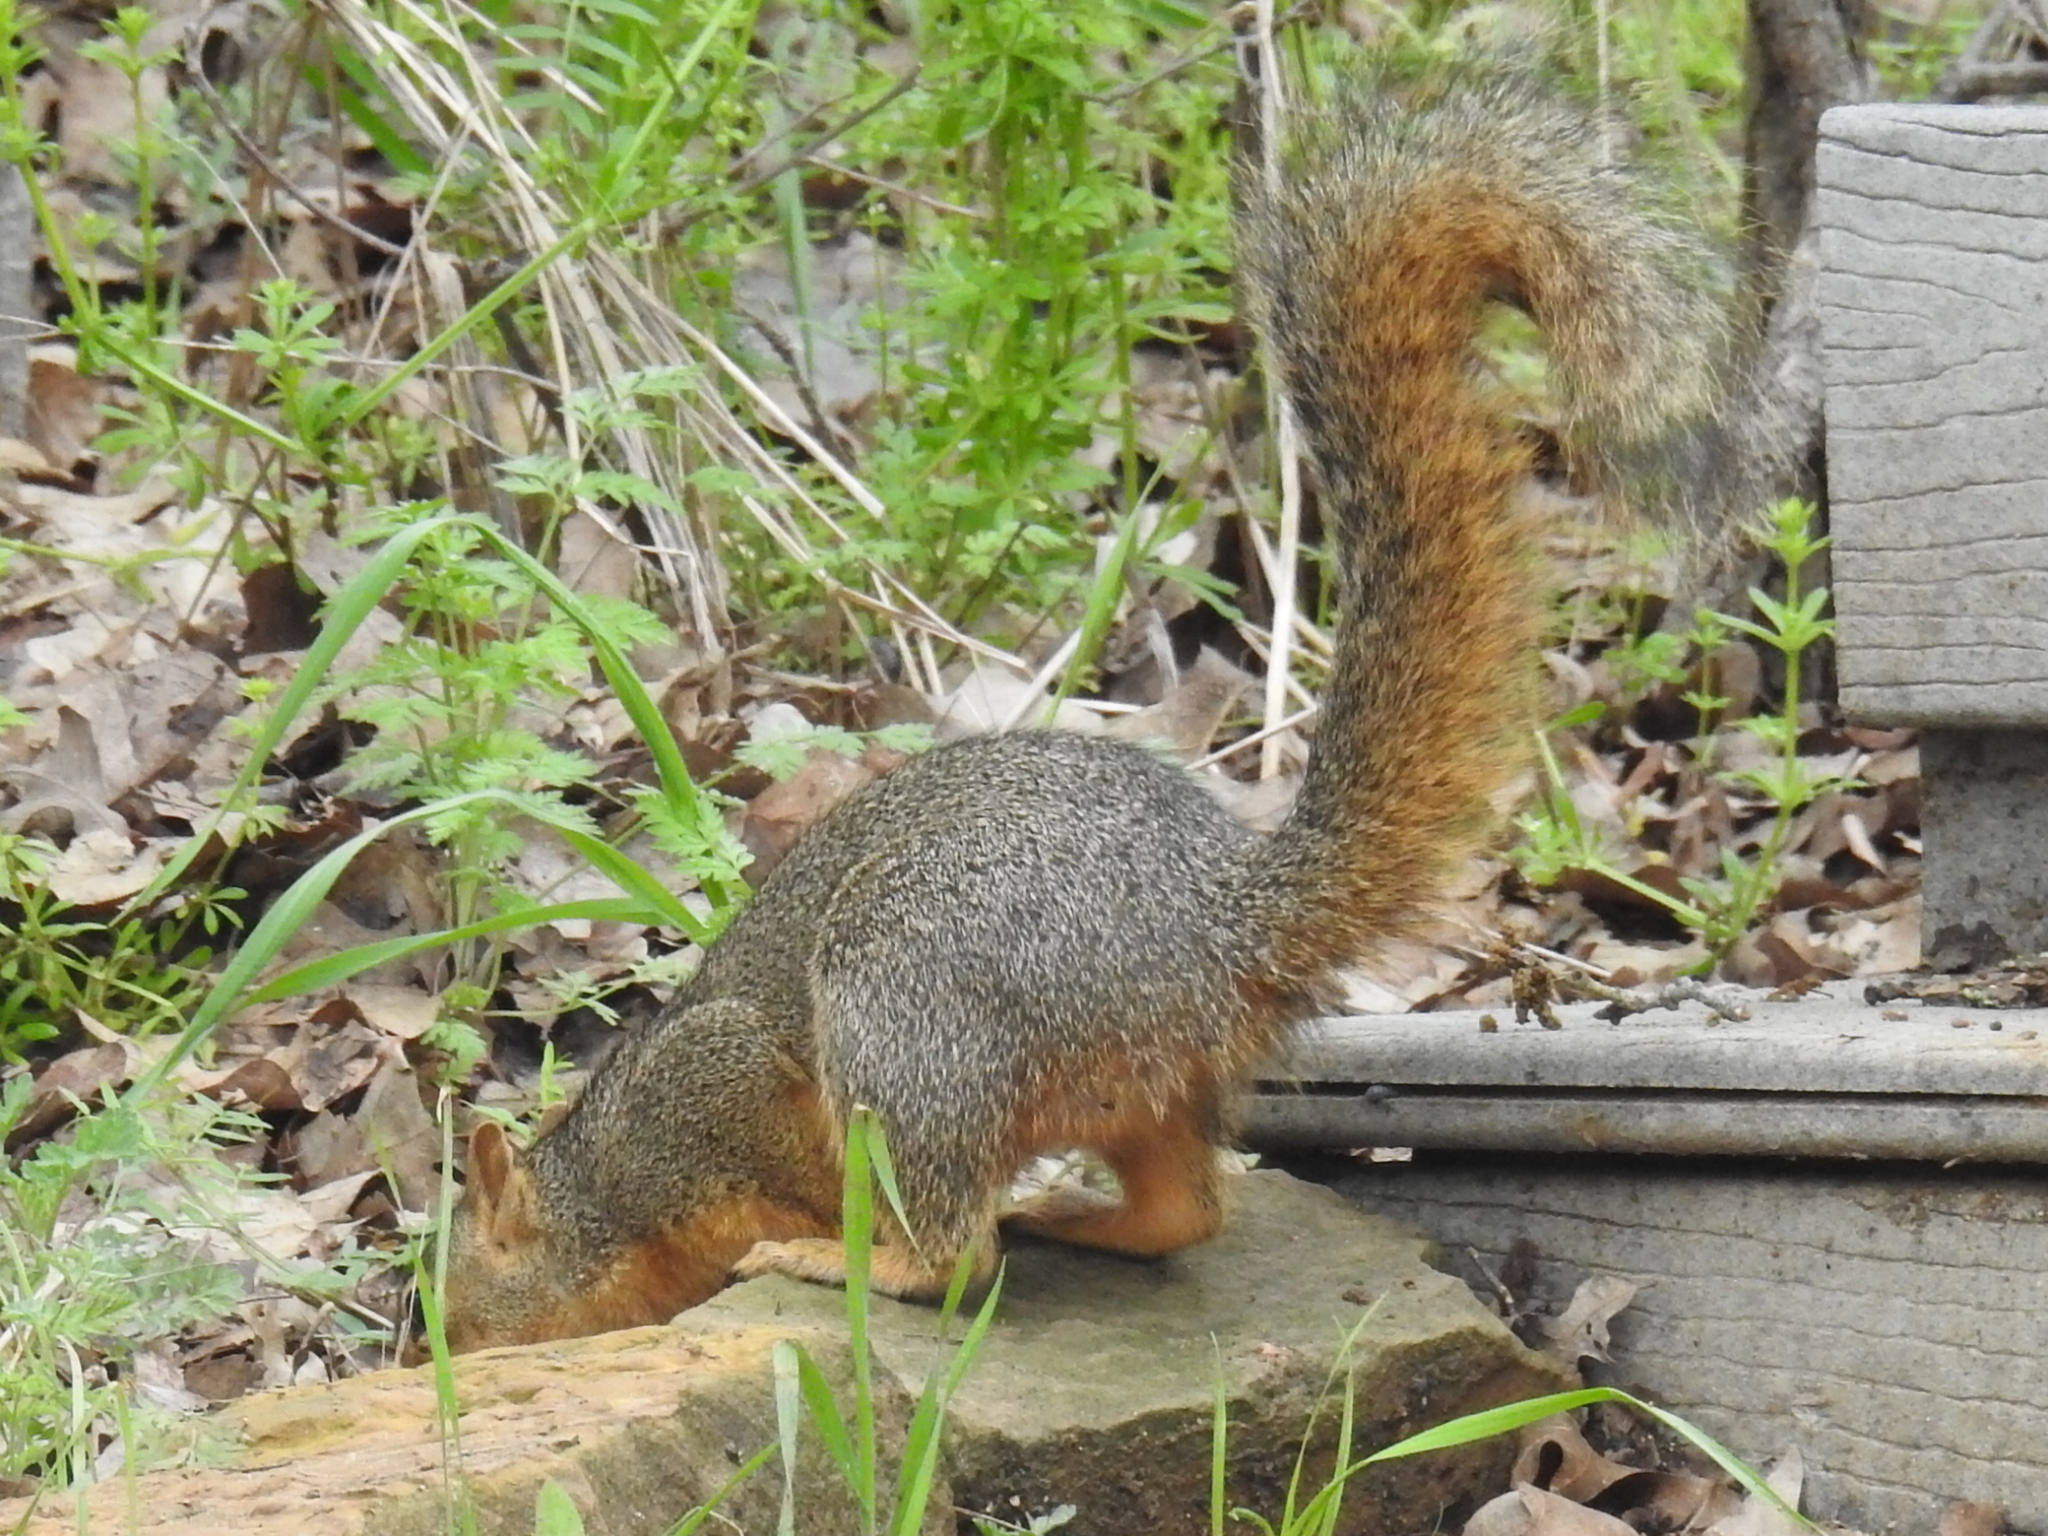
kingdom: Animalia
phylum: Chordata
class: Mammalia
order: Rodentia
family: Sciuridae
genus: Sciurus
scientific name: Sciurus niger
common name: Fox squirrel
